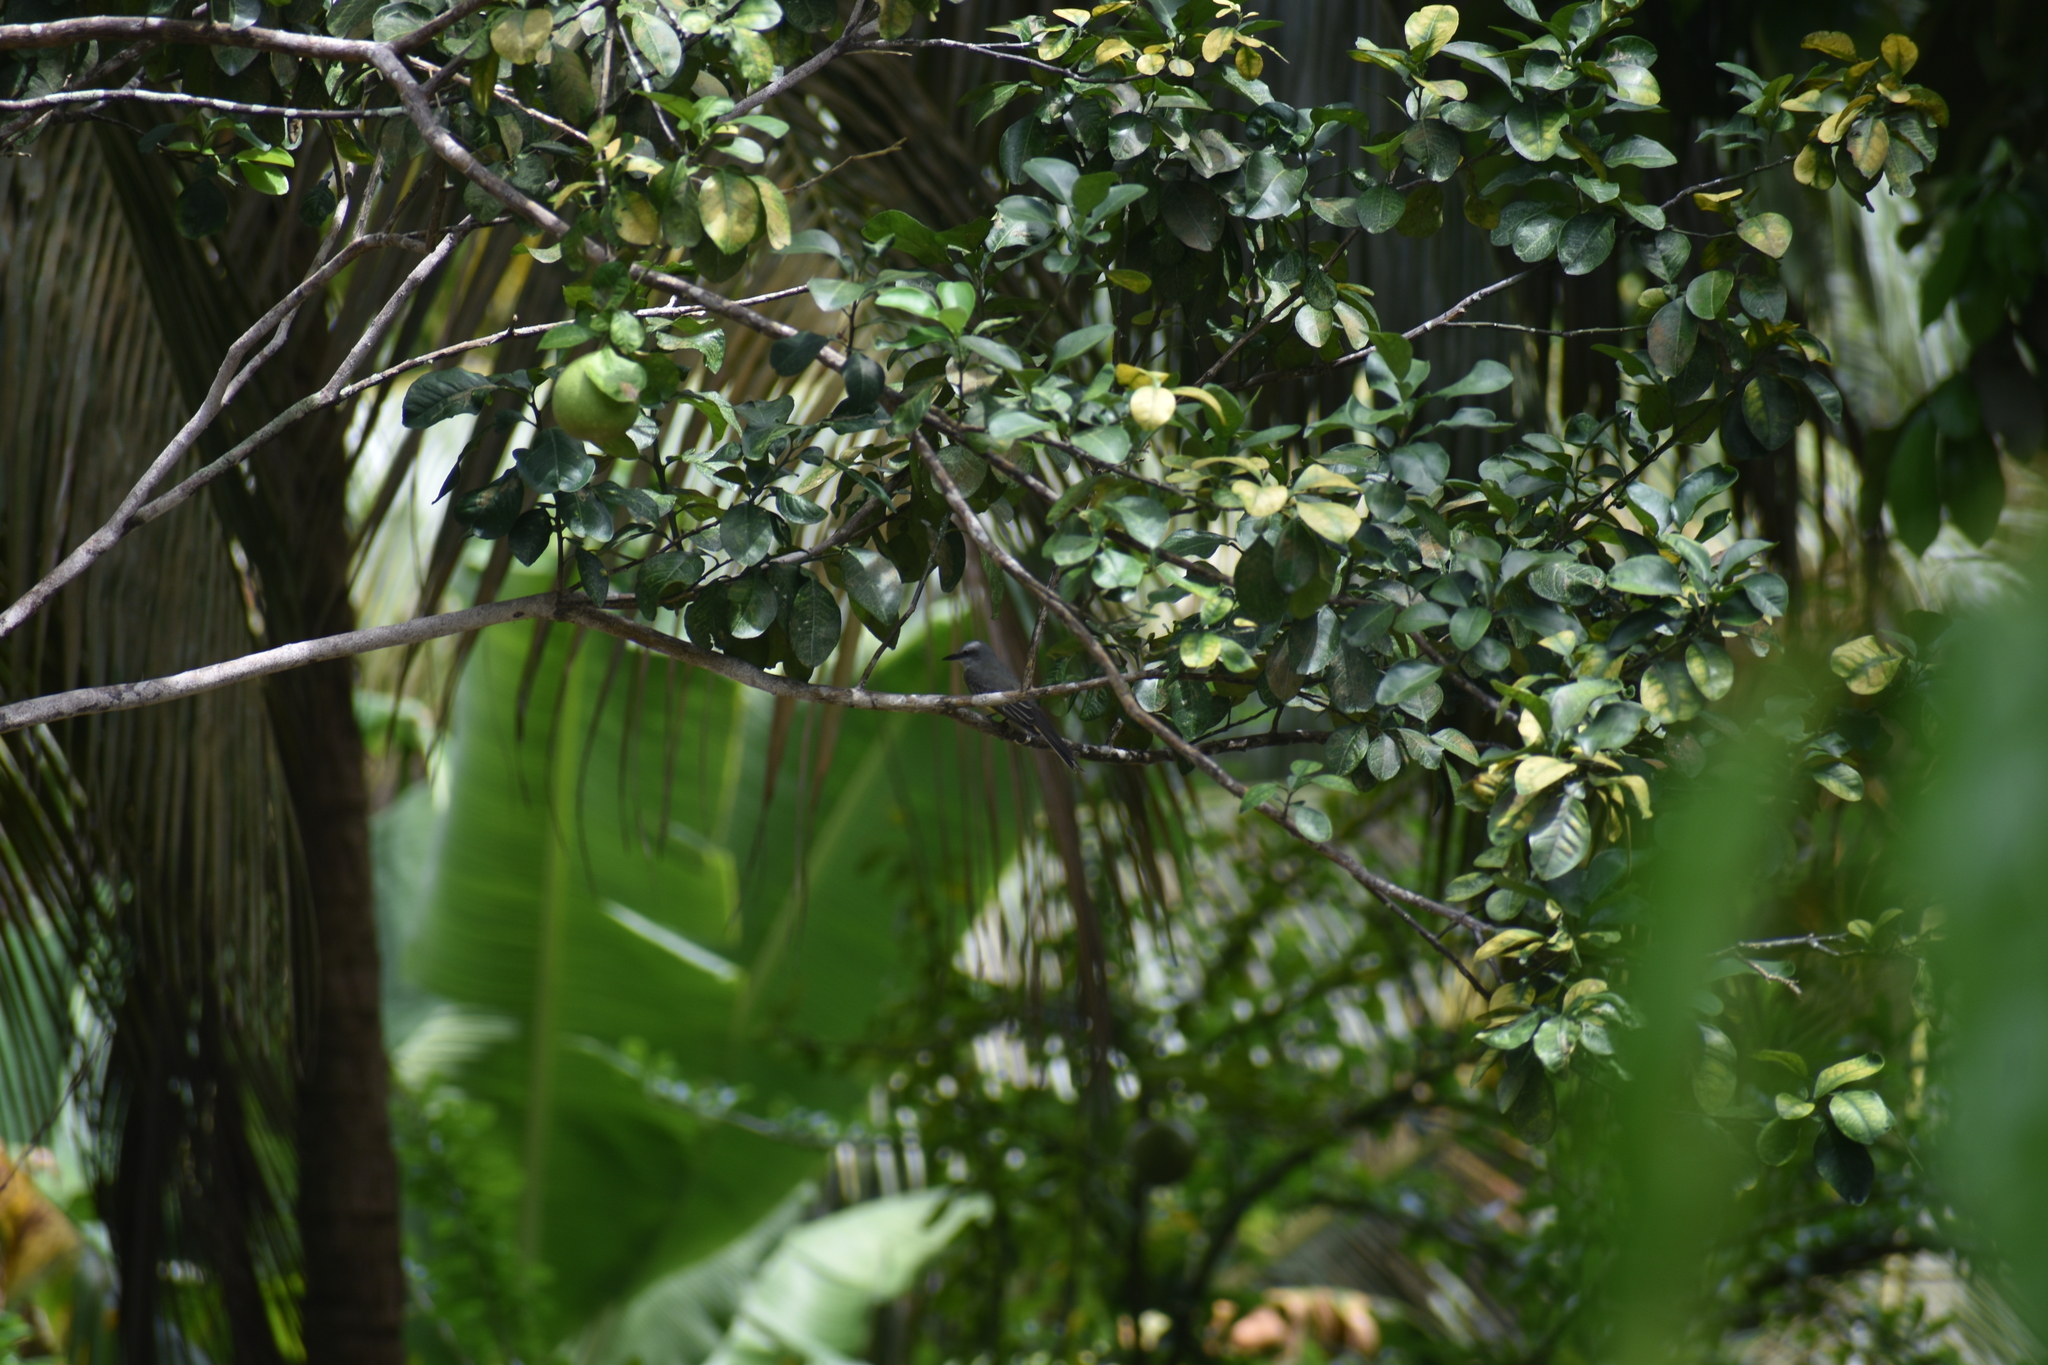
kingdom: Animalia
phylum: Chordata
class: Aves
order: Passeriformes
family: Tyrannidae
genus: Tyrannus
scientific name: Tyrannus melancholicus
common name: Tropical kingbird
